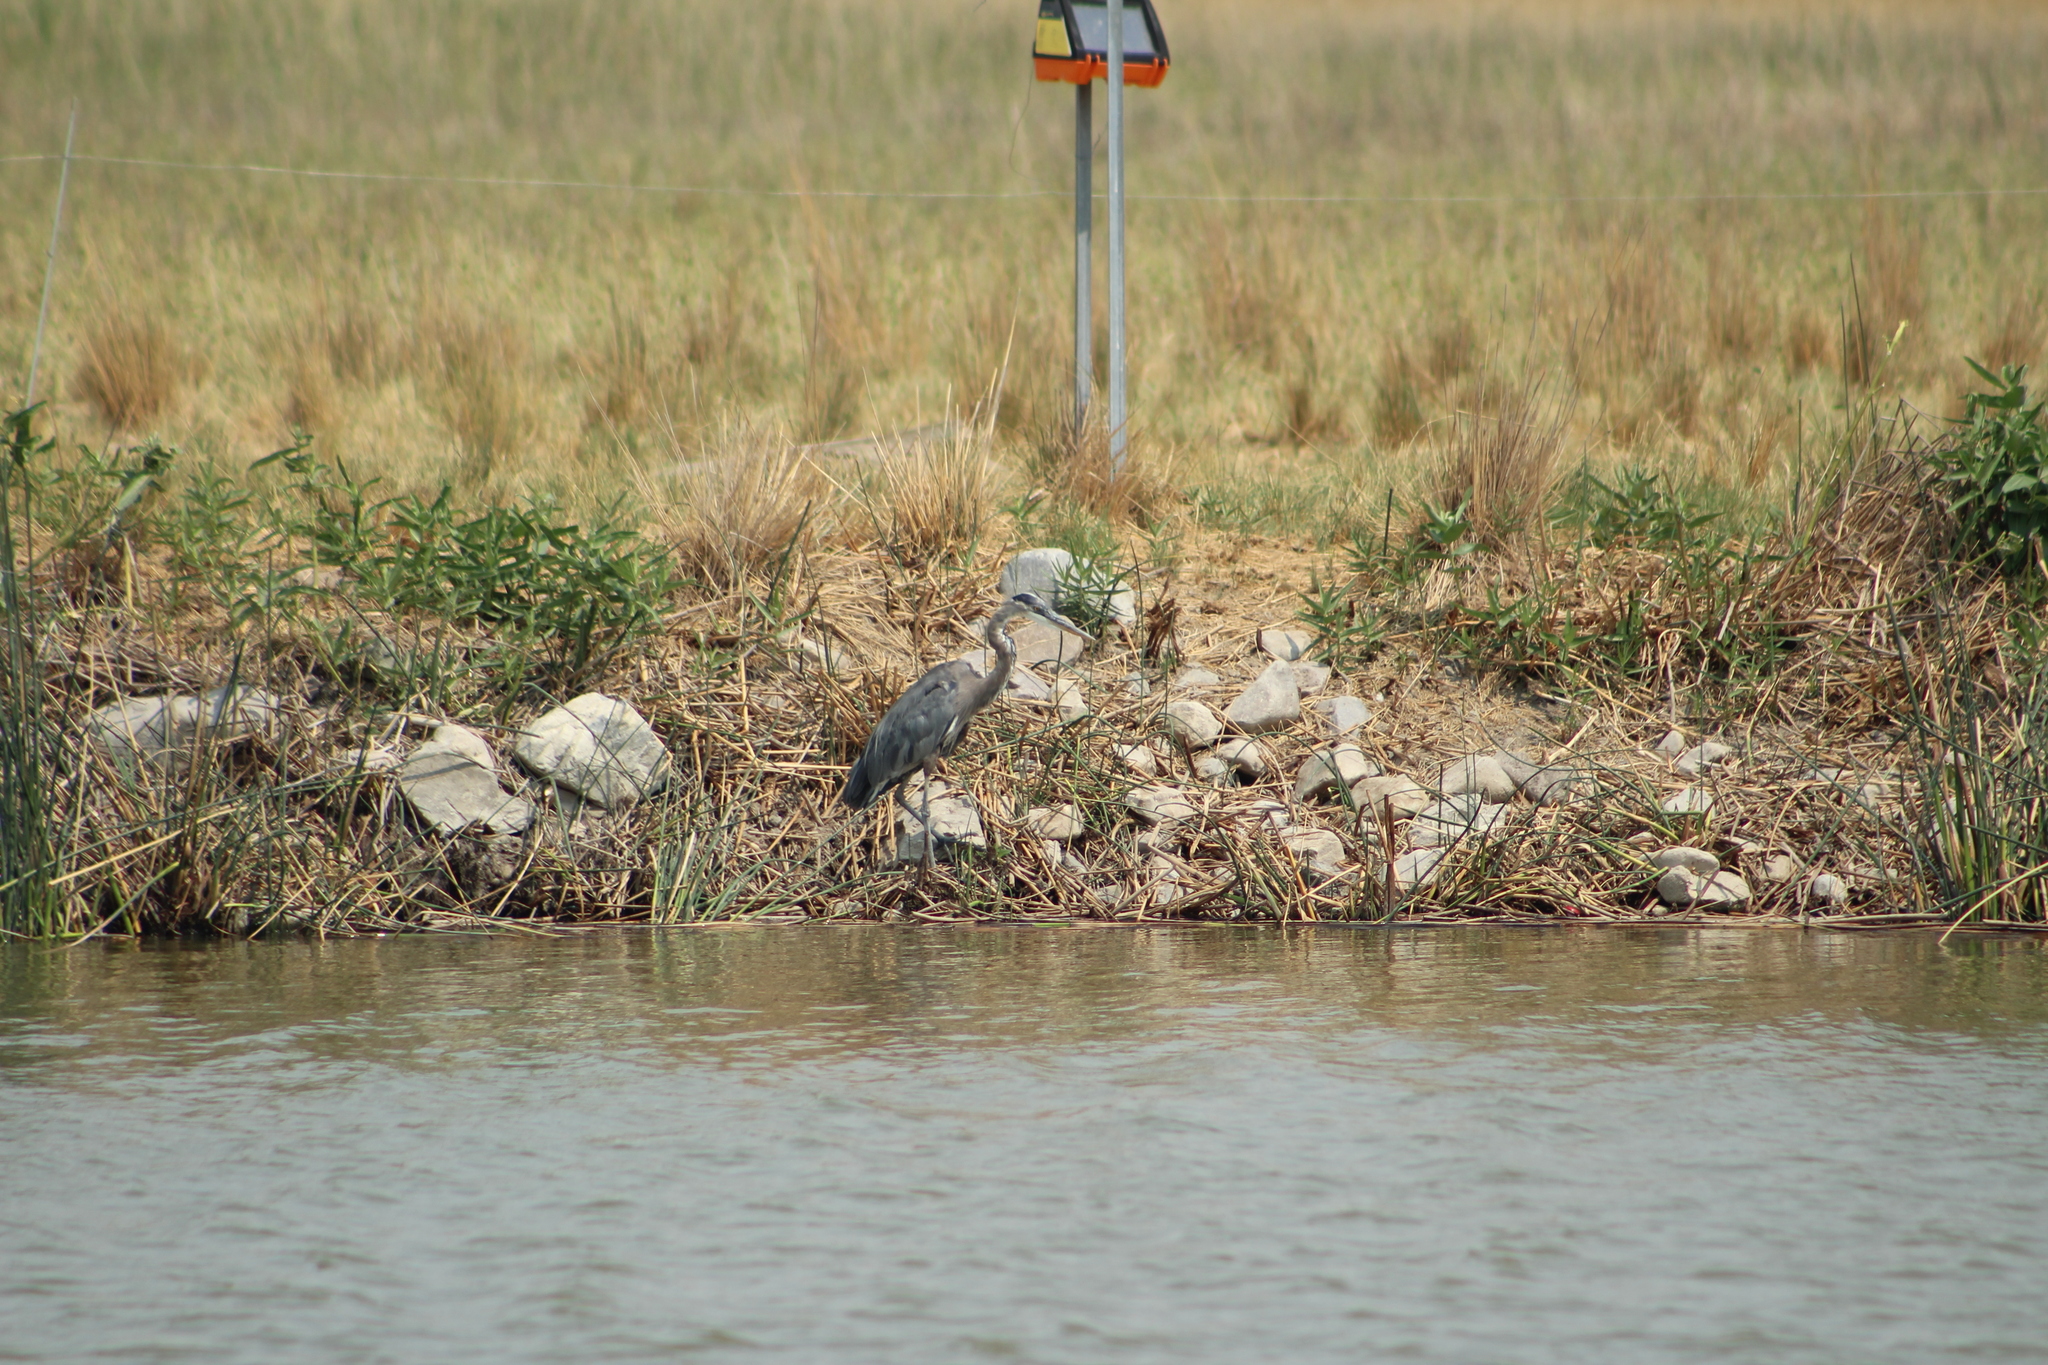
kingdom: Animalia
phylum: Chordata
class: Aves
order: Pelecaniformes
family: Ardeidae
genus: Ardea
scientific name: Ardea herodias
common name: Great blue heron
